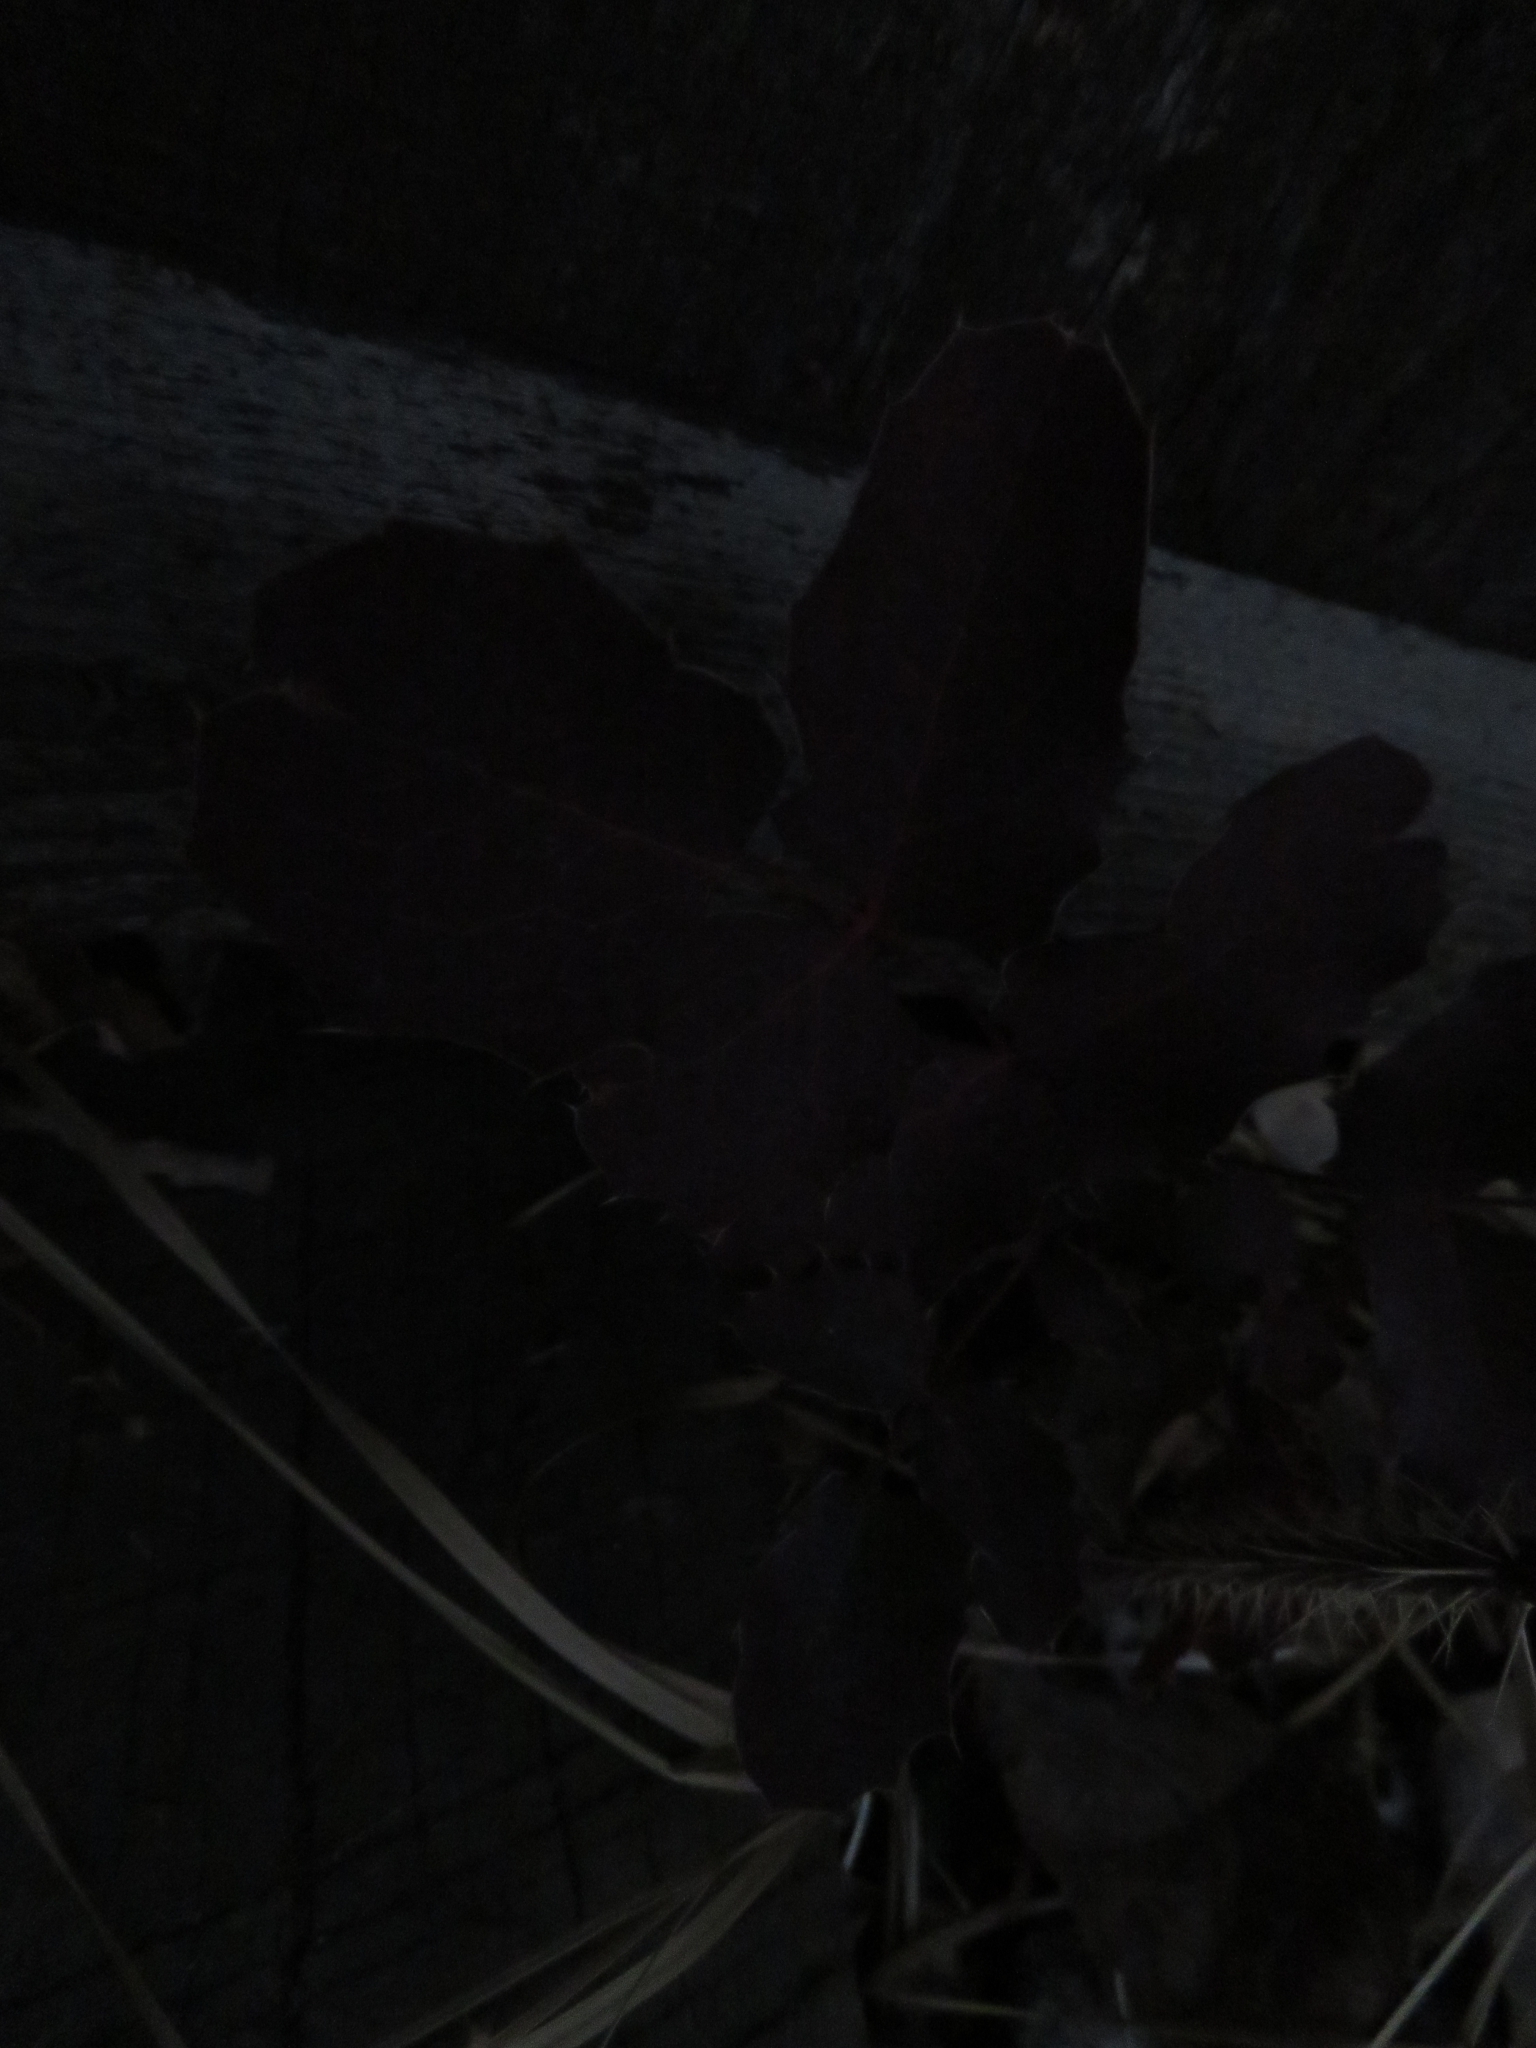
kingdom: Plantae
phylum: Tracheophyta
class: Magnoliopsida
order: Ranunculales
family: Berberidaceae
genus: Mahonia
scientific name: Mahonia repens
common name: Creeping oregon-grape
